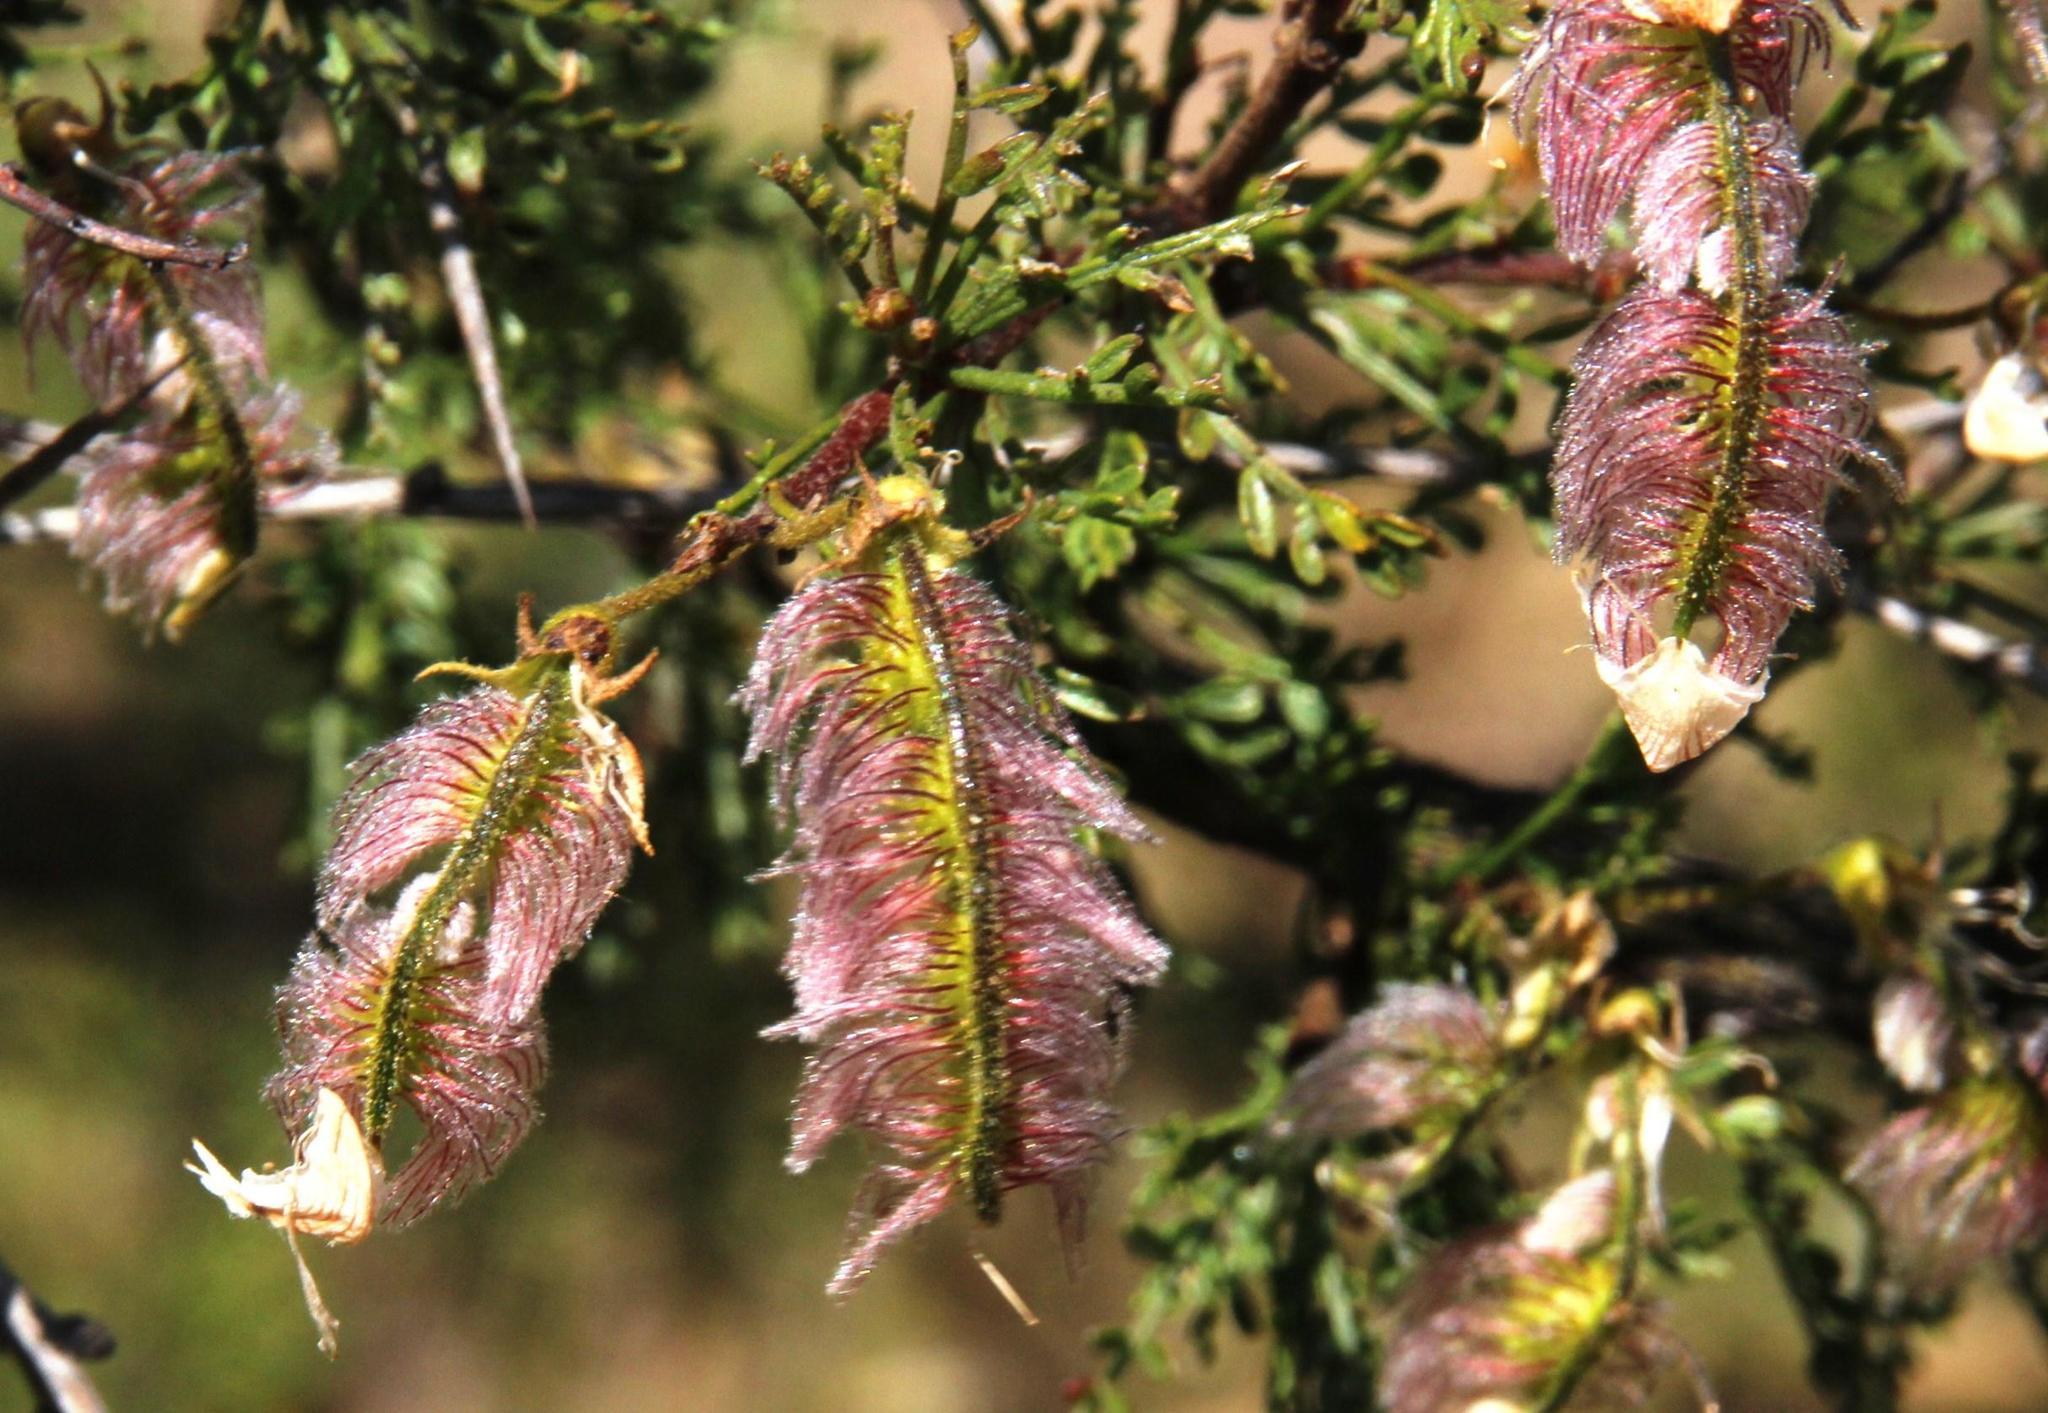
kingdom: Plantae
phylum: Tracheophyta
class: Magnoliopsida
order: Fabales
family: Fabaceae
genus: Adesmia
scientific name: Adesmia microphylla
